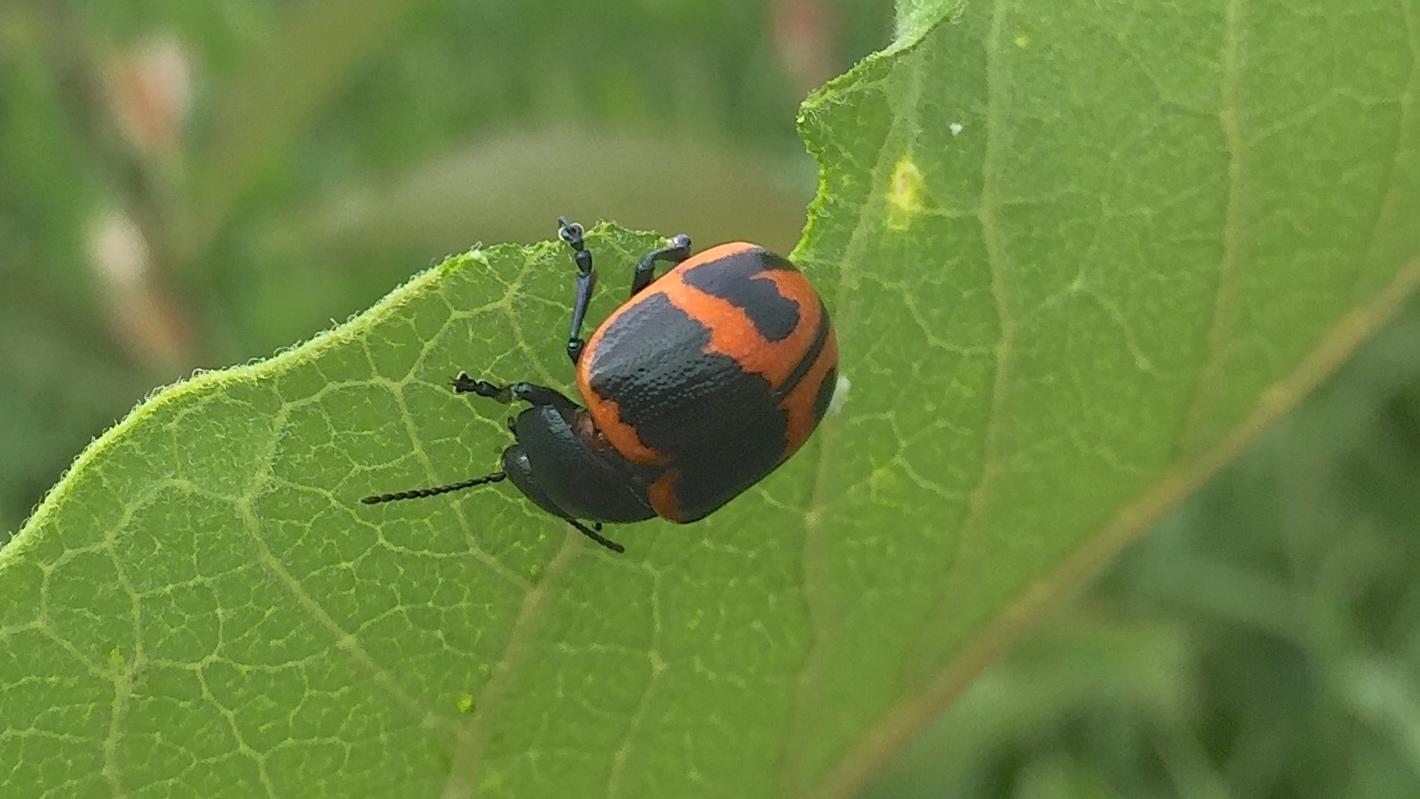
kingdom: Animalia
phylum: Arthropoda
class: Insecta
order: Coleoptera
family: Chrysomelidae
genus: Labidomera
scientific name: Labidomera clivicollis
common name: Swamp milkweed leaf beetle
